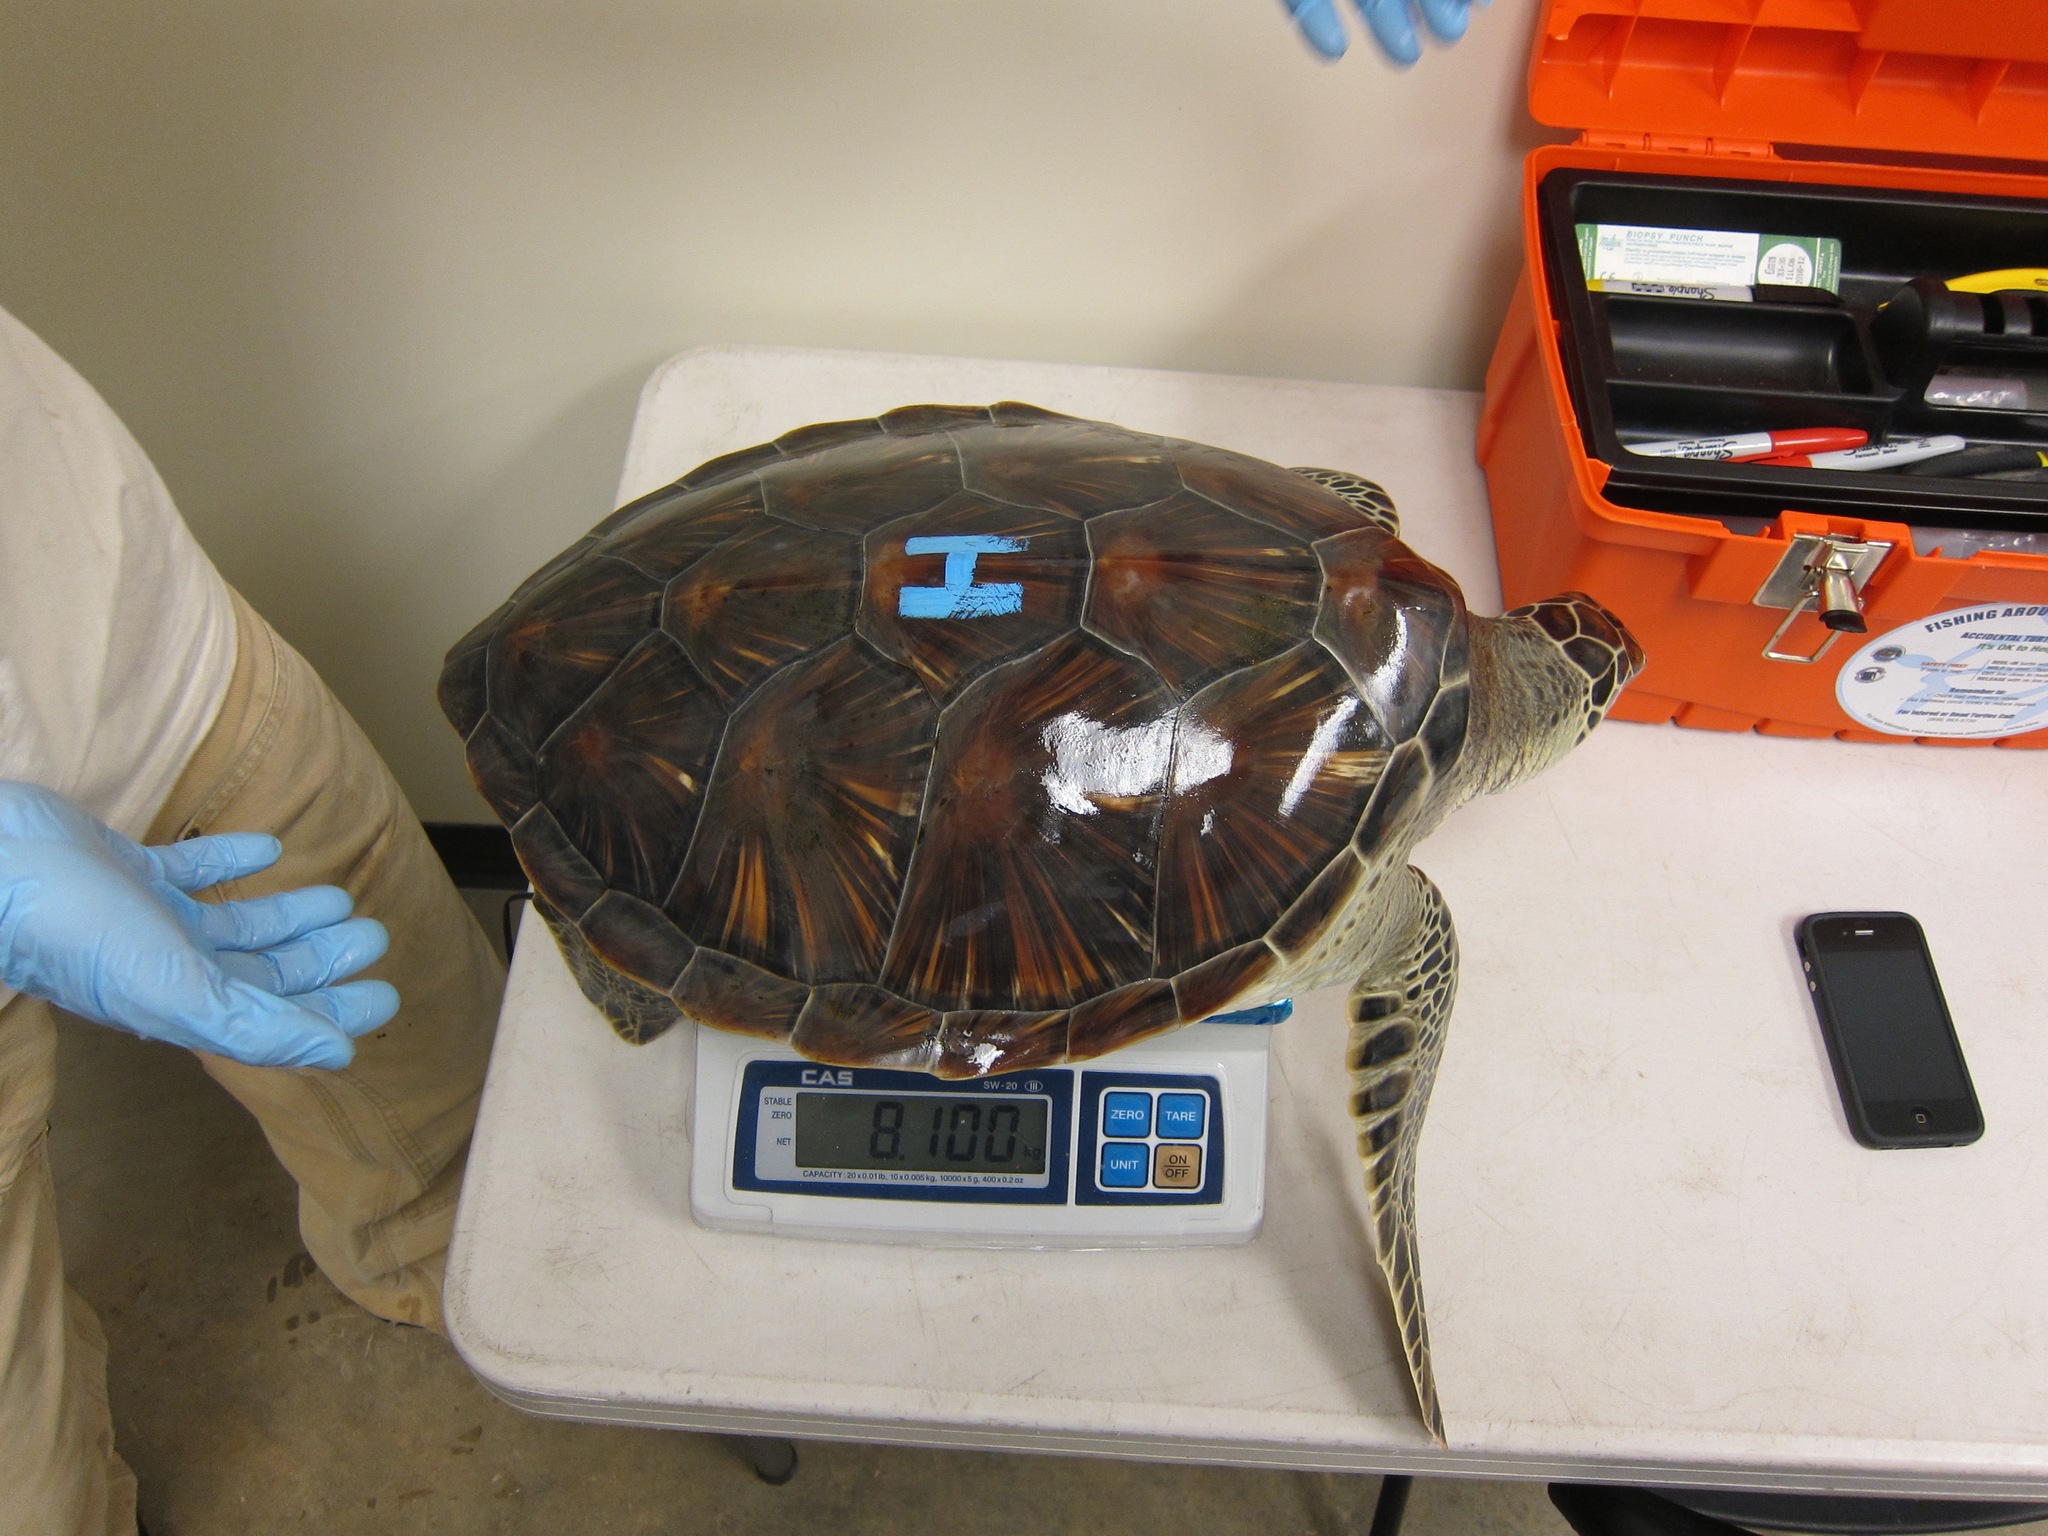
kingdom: Animalia
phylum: Chordata
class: Testudines
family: Cheloniidae
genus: Chelonia
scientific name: Chelonia mydas
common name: Green turtle
